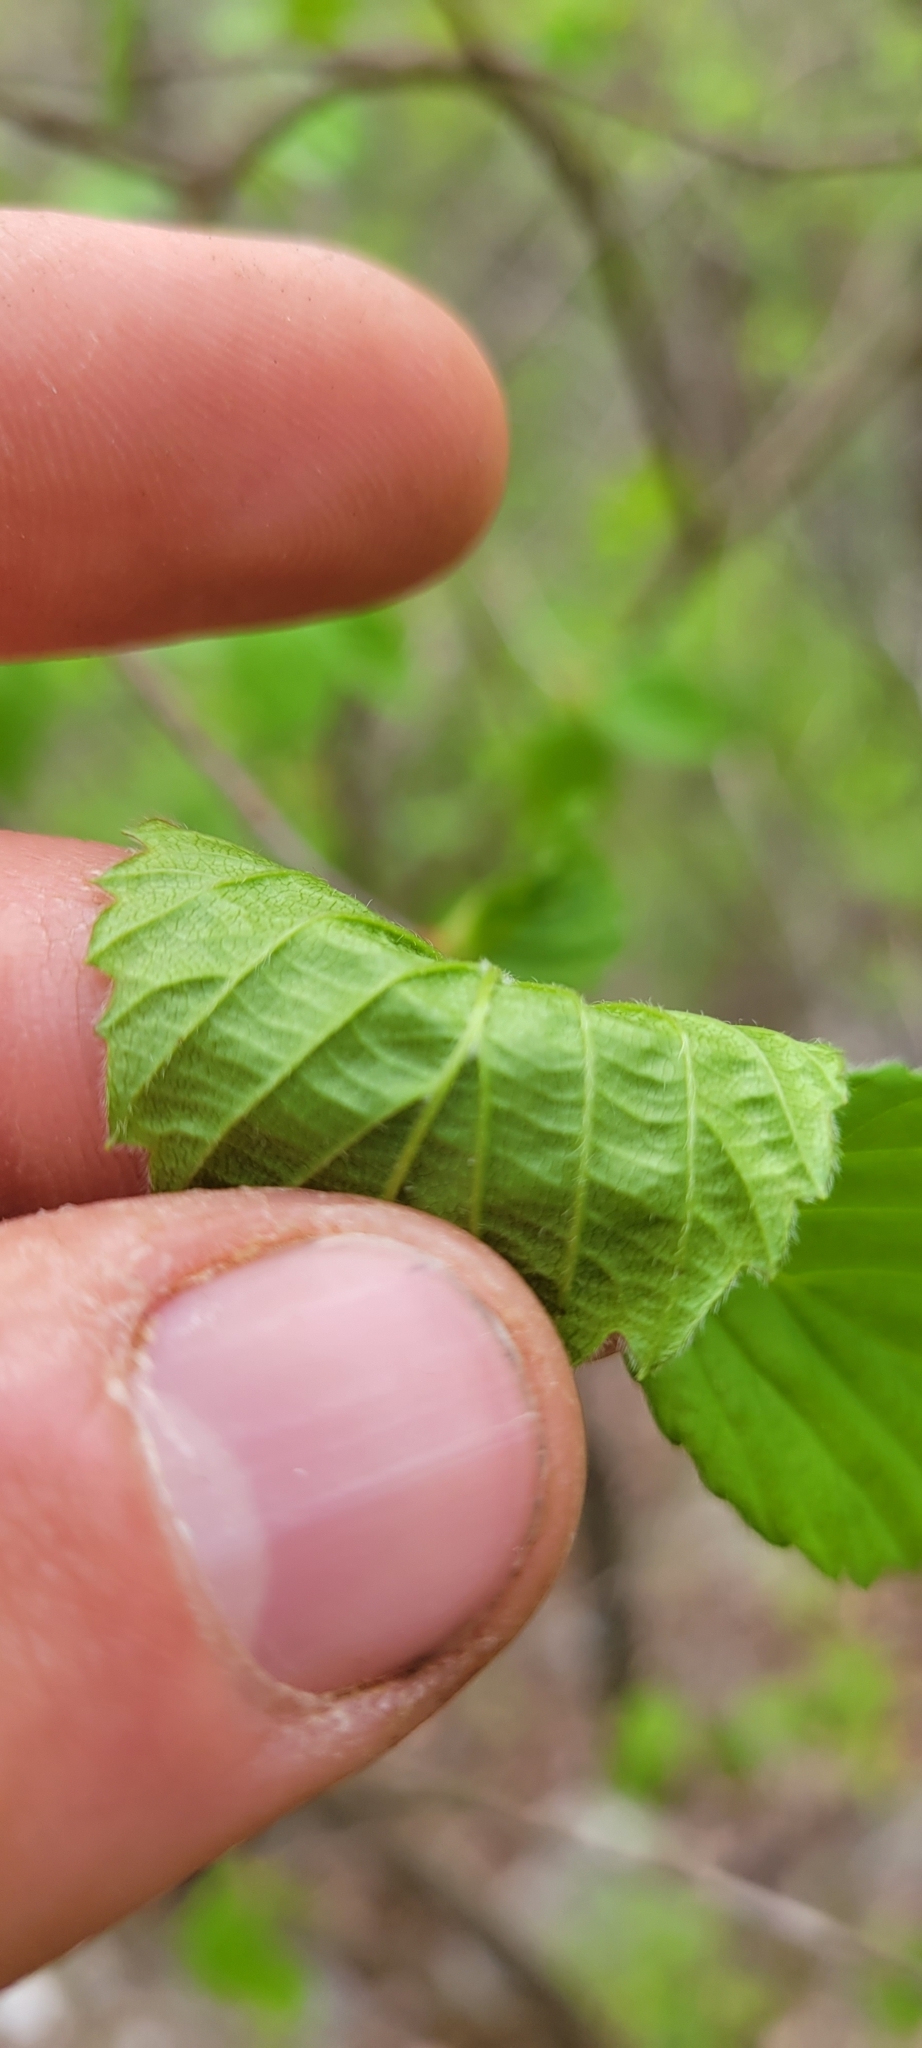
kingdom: Plantae
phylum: Tracheophyta
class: Magnoliopsida
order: Dipsacales
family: Viburnaceae
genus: Viburnum
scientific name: Viburnum rafinesqueanum
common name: Downy arrow-wood
